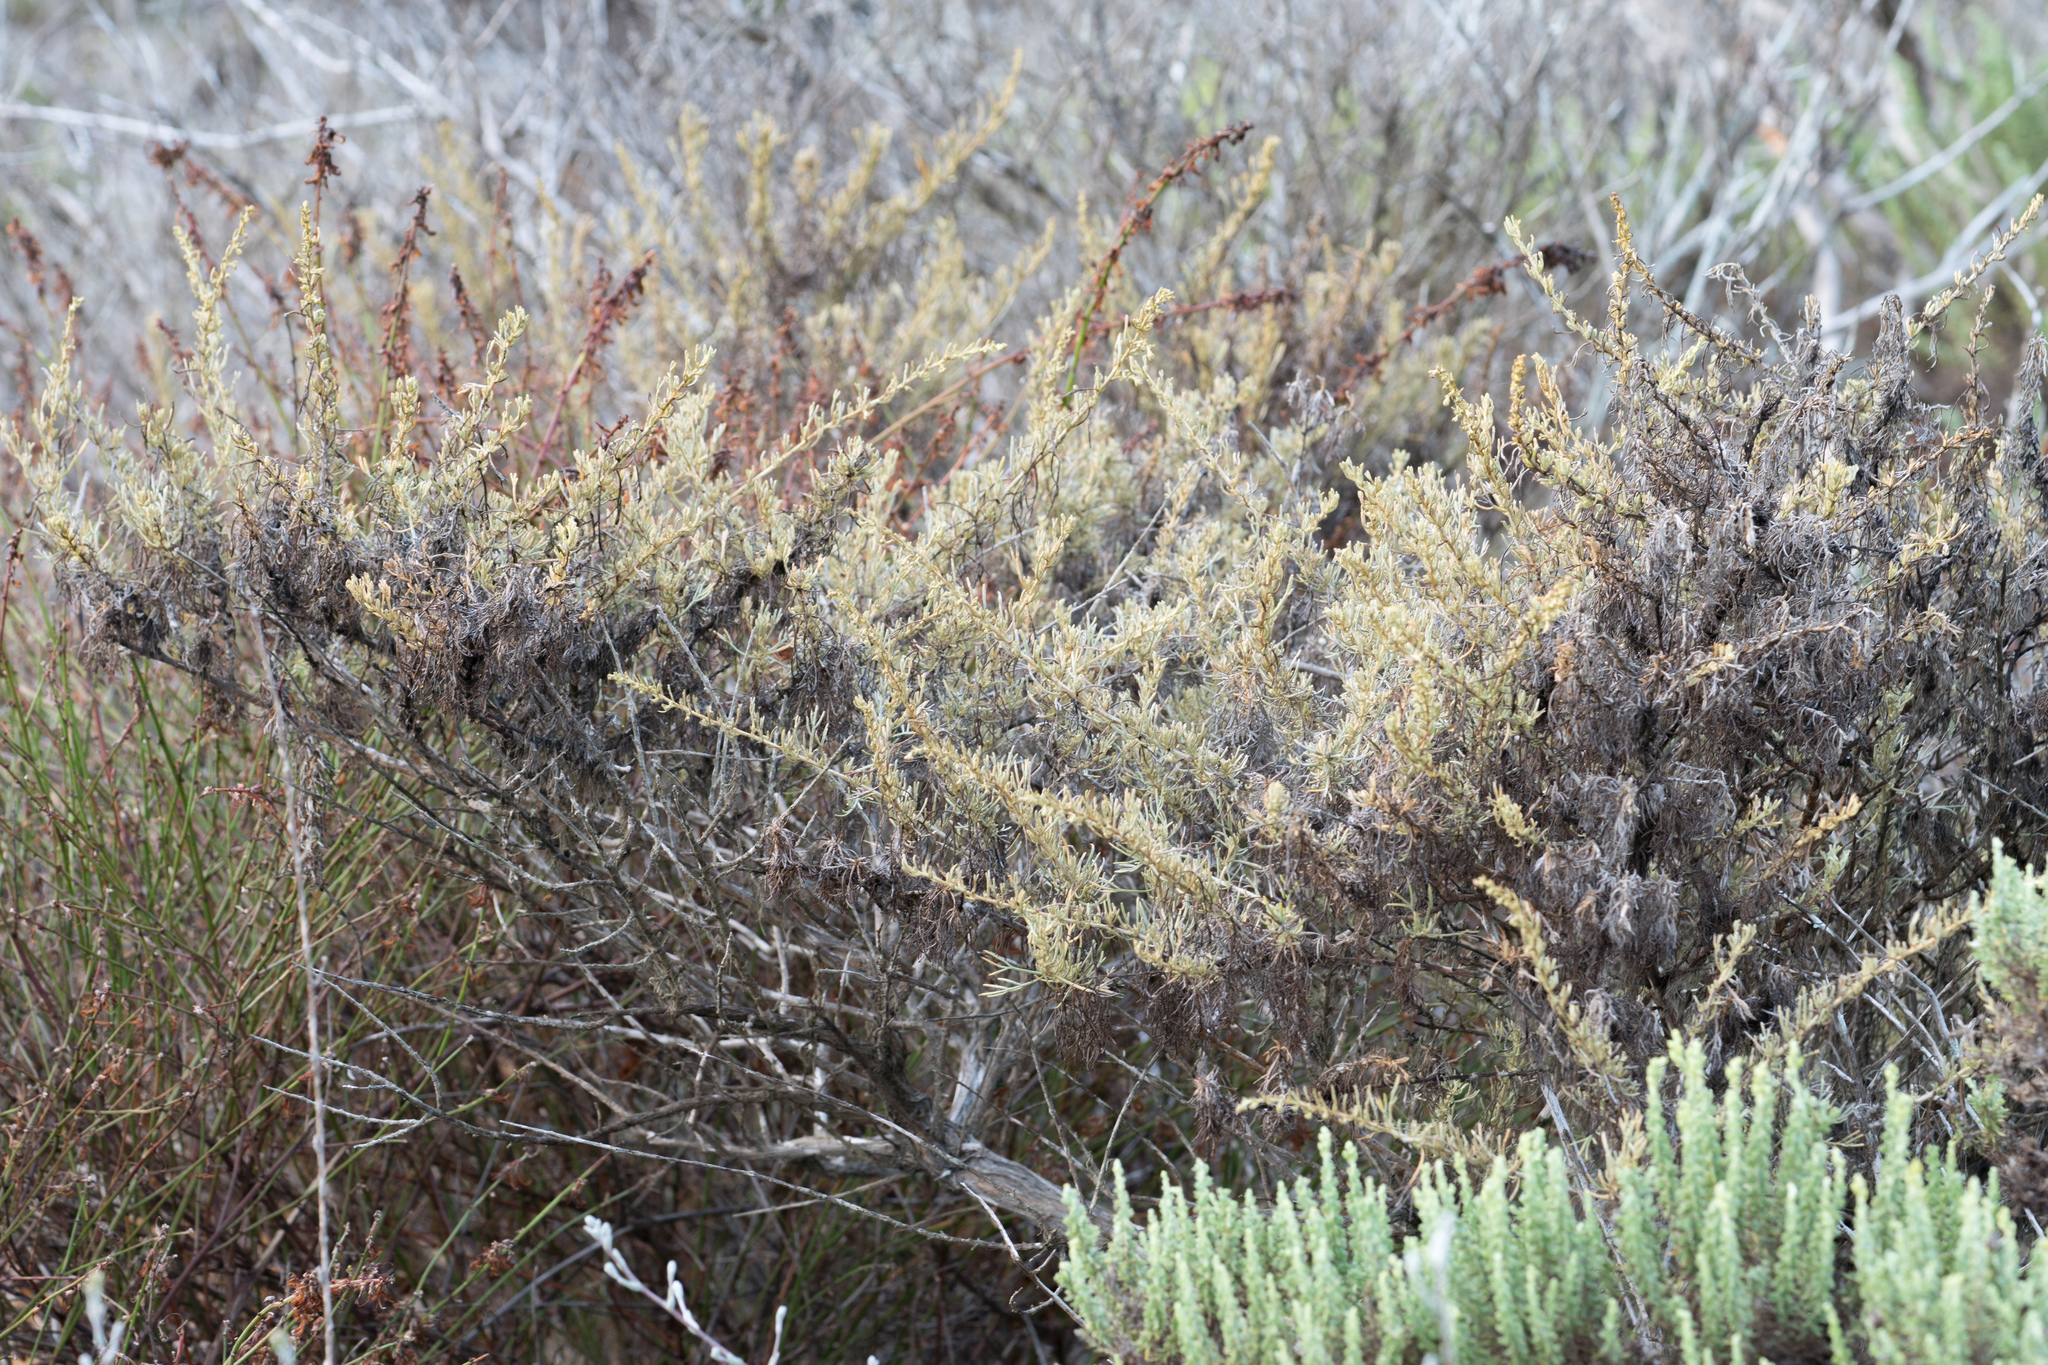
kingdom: Plantae
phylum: Tracheophyta
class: Magnoliopsida
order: Asterales
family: Asteraceae
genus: Artemisia
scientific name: Artemisia californica
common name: California sagebrush
